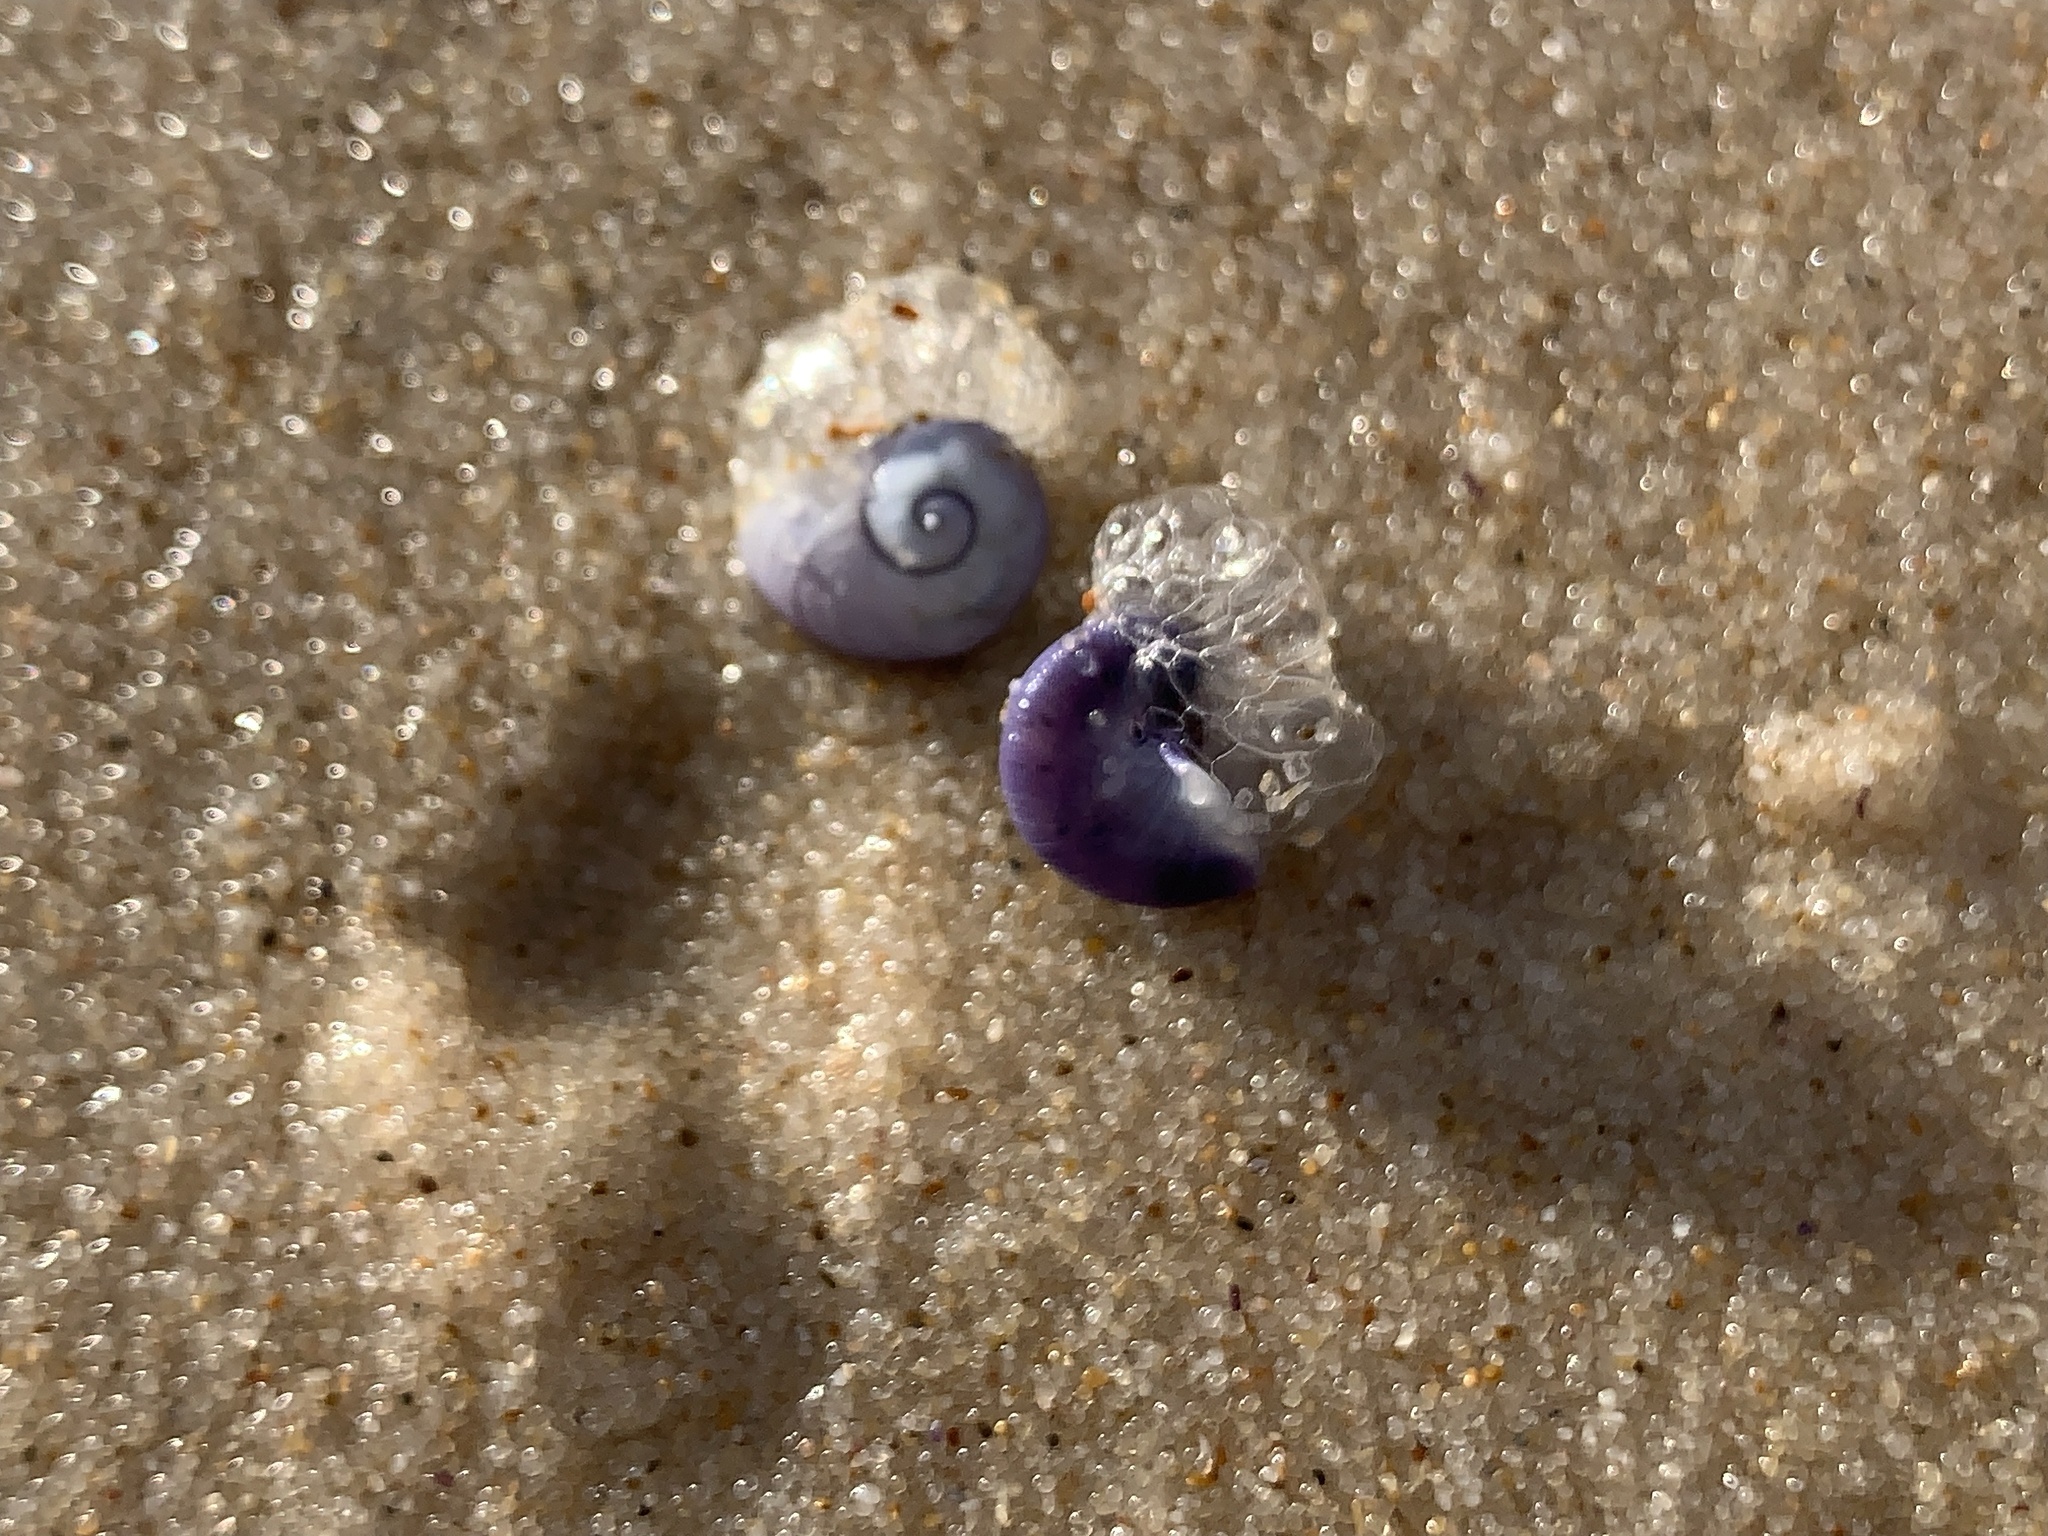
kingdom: Animalia
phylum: Mollusca
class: Gastropoda
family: Epitoniidae
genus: Janthina
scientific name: Janthina janthina
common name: Common janthina
